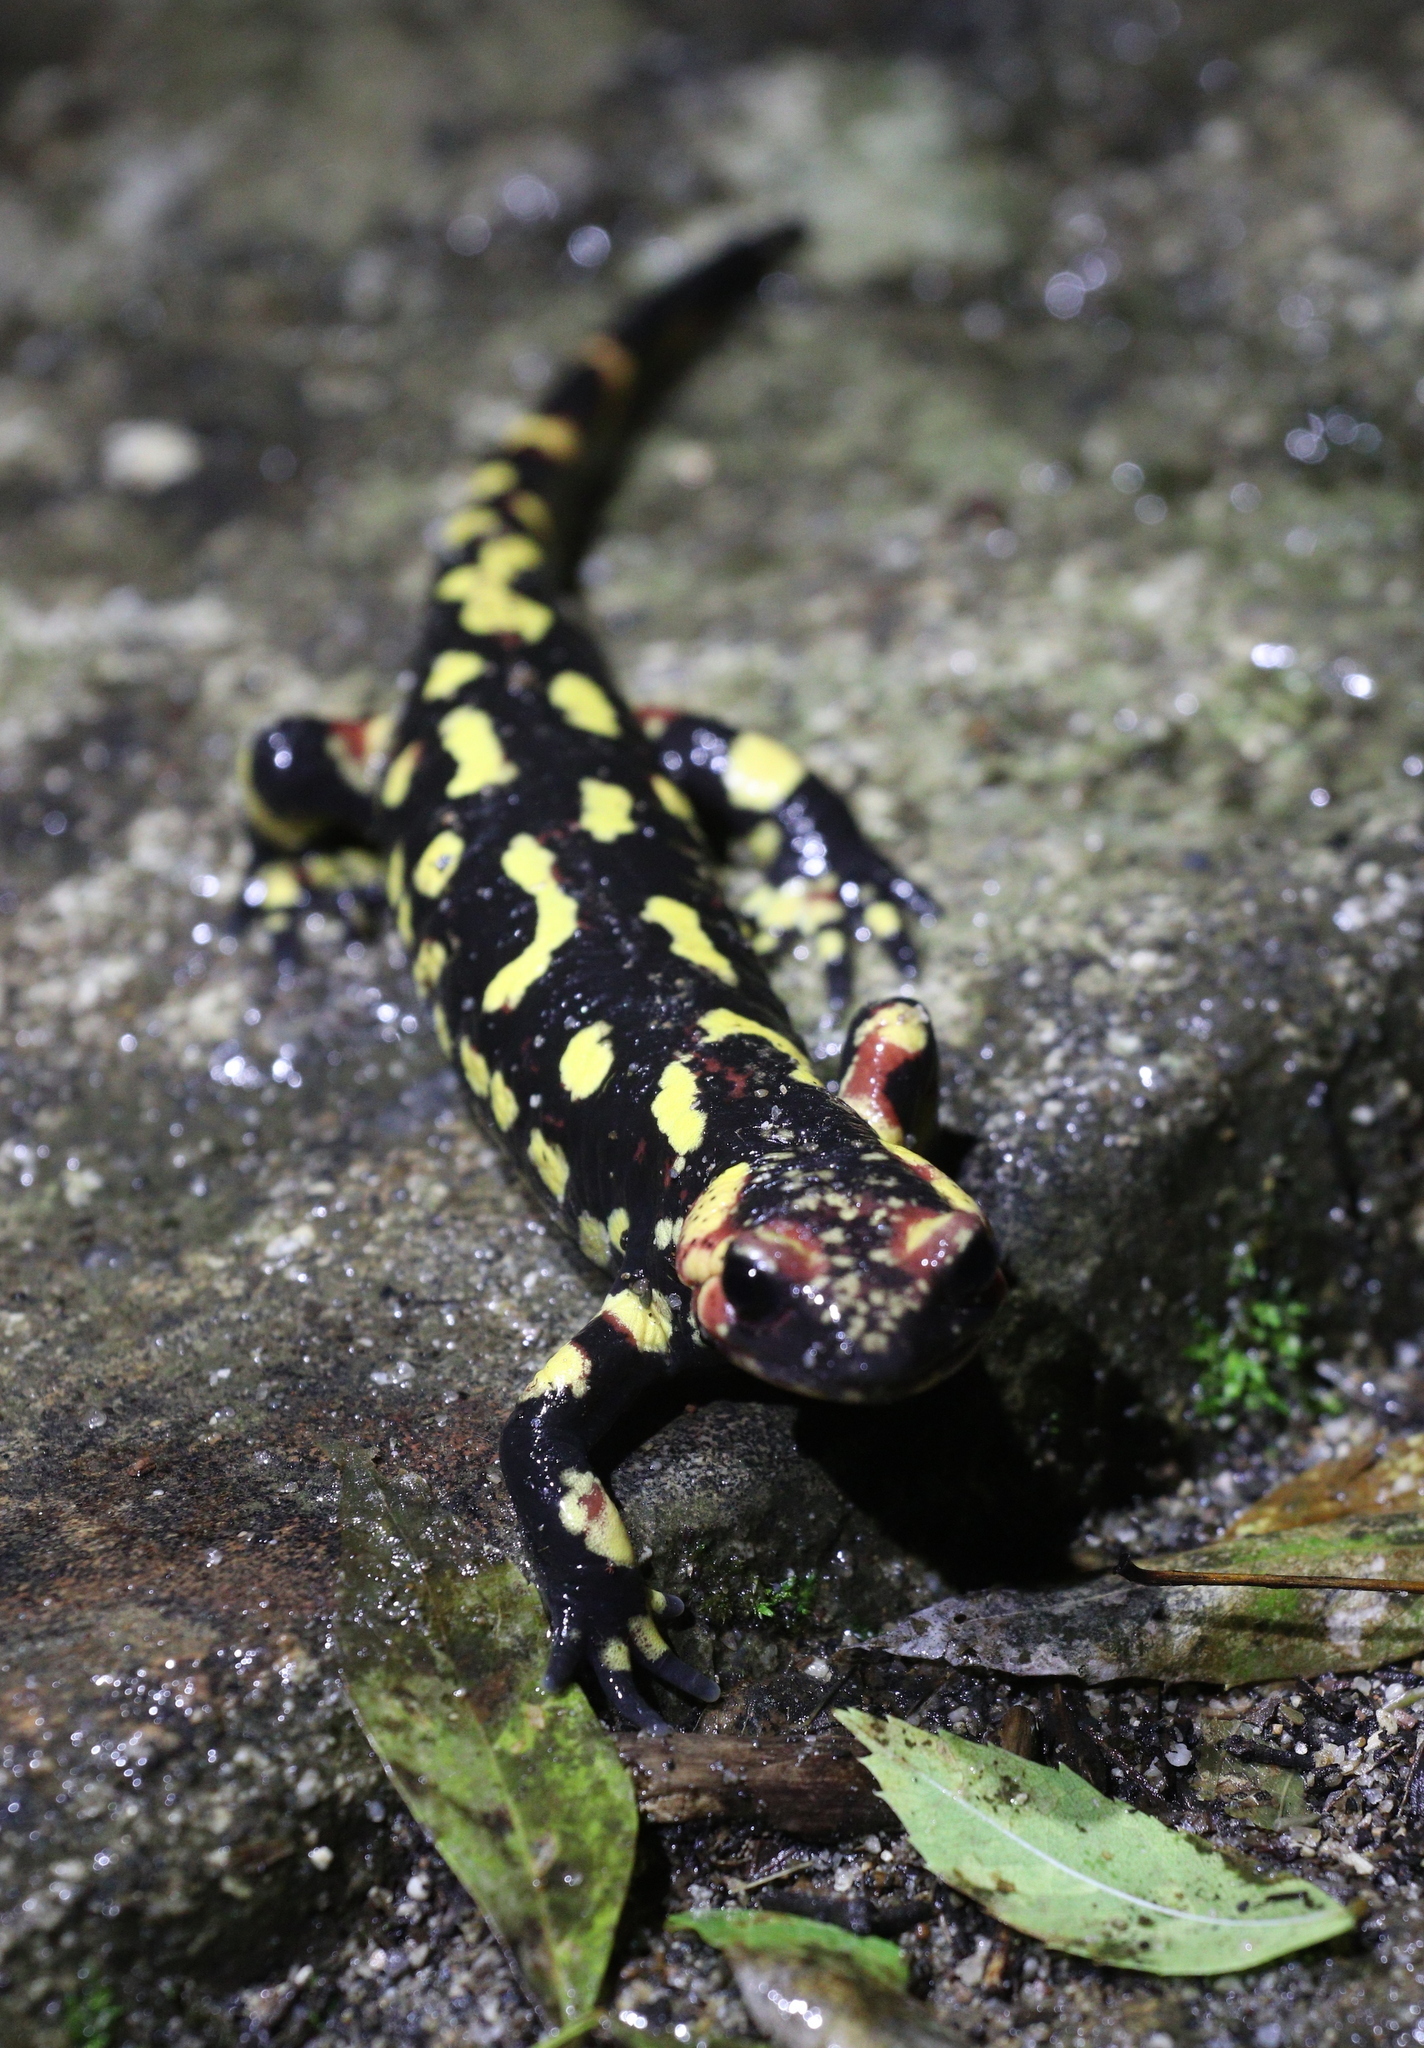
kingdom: Animalia
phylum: Chordata
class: Amphibia
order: Caudata
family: Salamandridae
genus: Salamandra
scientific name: Salamandra salamandra
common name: Fire salamander
